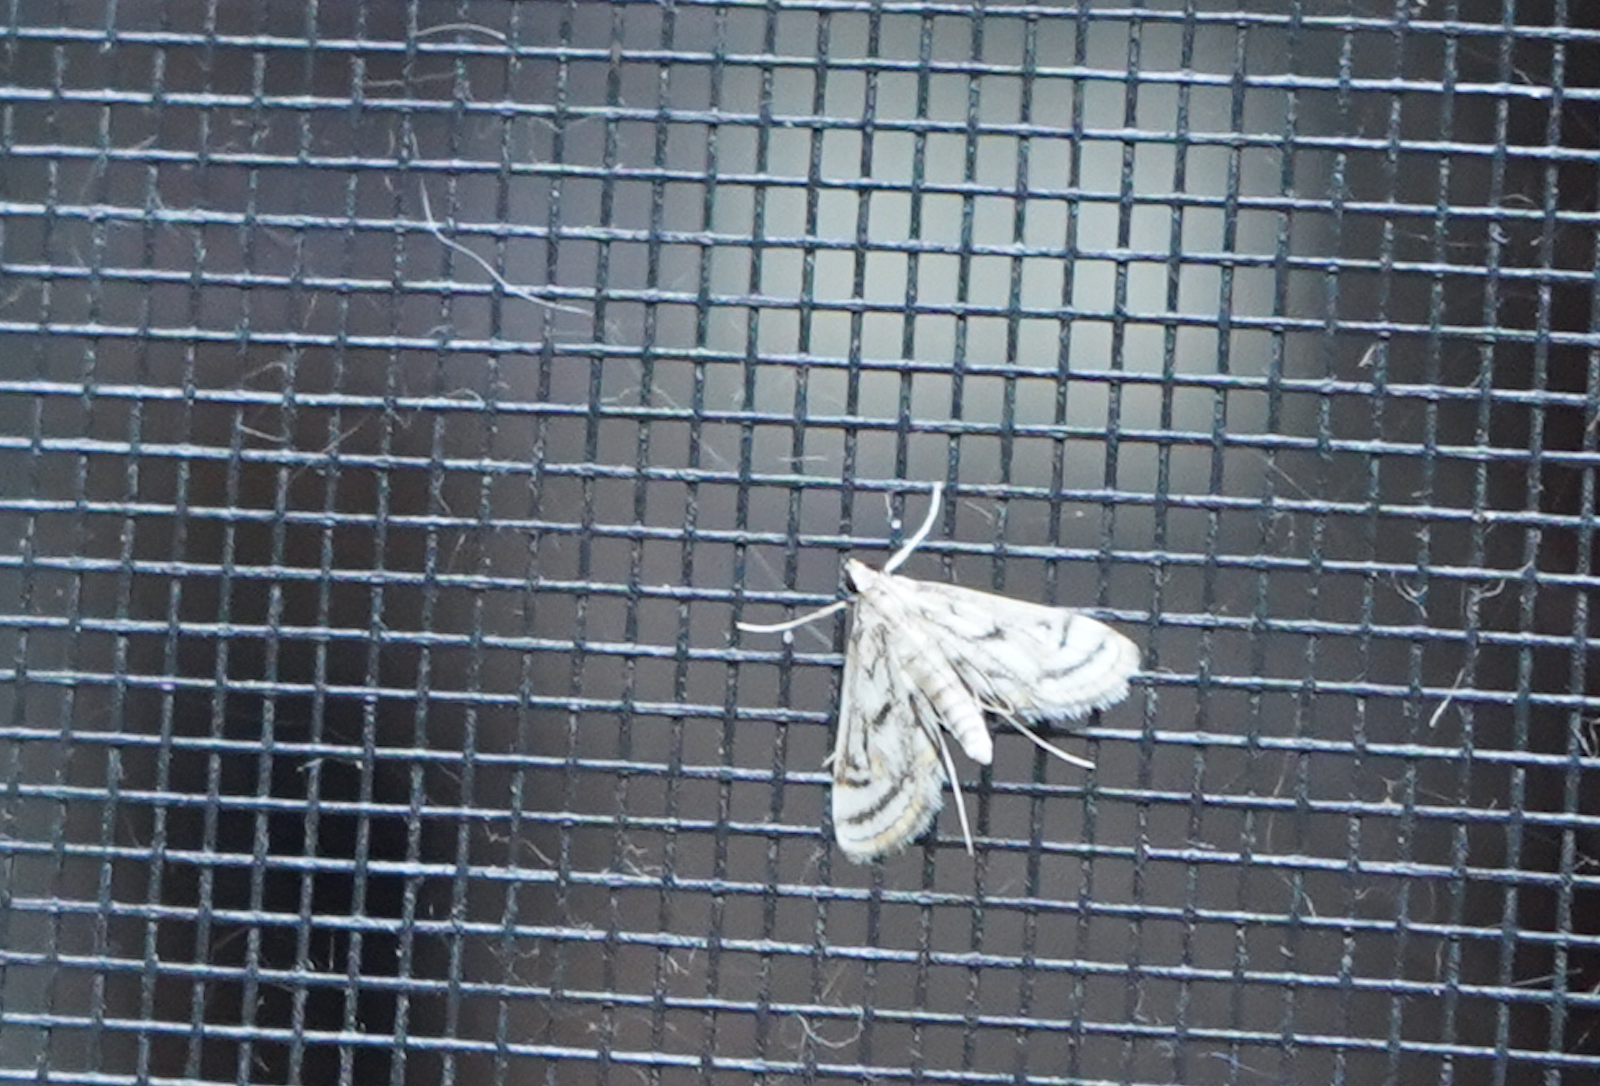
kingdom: Animalia
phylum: Arthropoda
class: Insecta
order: Lepidoptera
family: Crambidae
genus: Parapoynx
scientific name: Parapoynx badiusalis
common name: Chestnut-marked pondweed moth
